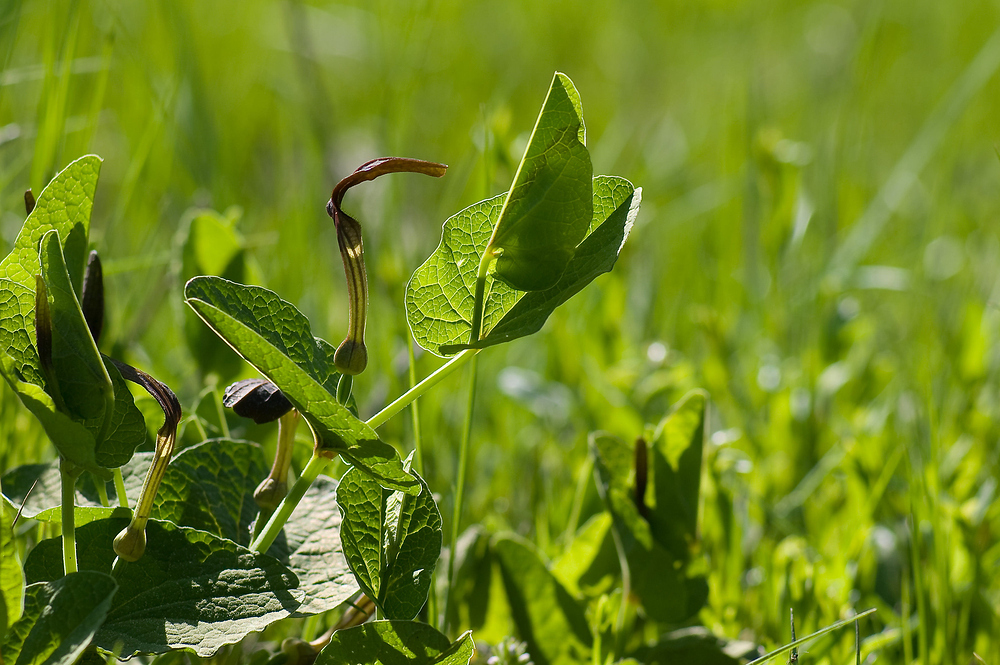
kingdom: Plantae
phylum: Tracheophyta
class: Magnoliopsida
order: Piperales
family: Aristolochiaceae
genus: Aristolochia
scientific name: Aristolochia rotunda
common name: Smearwort
